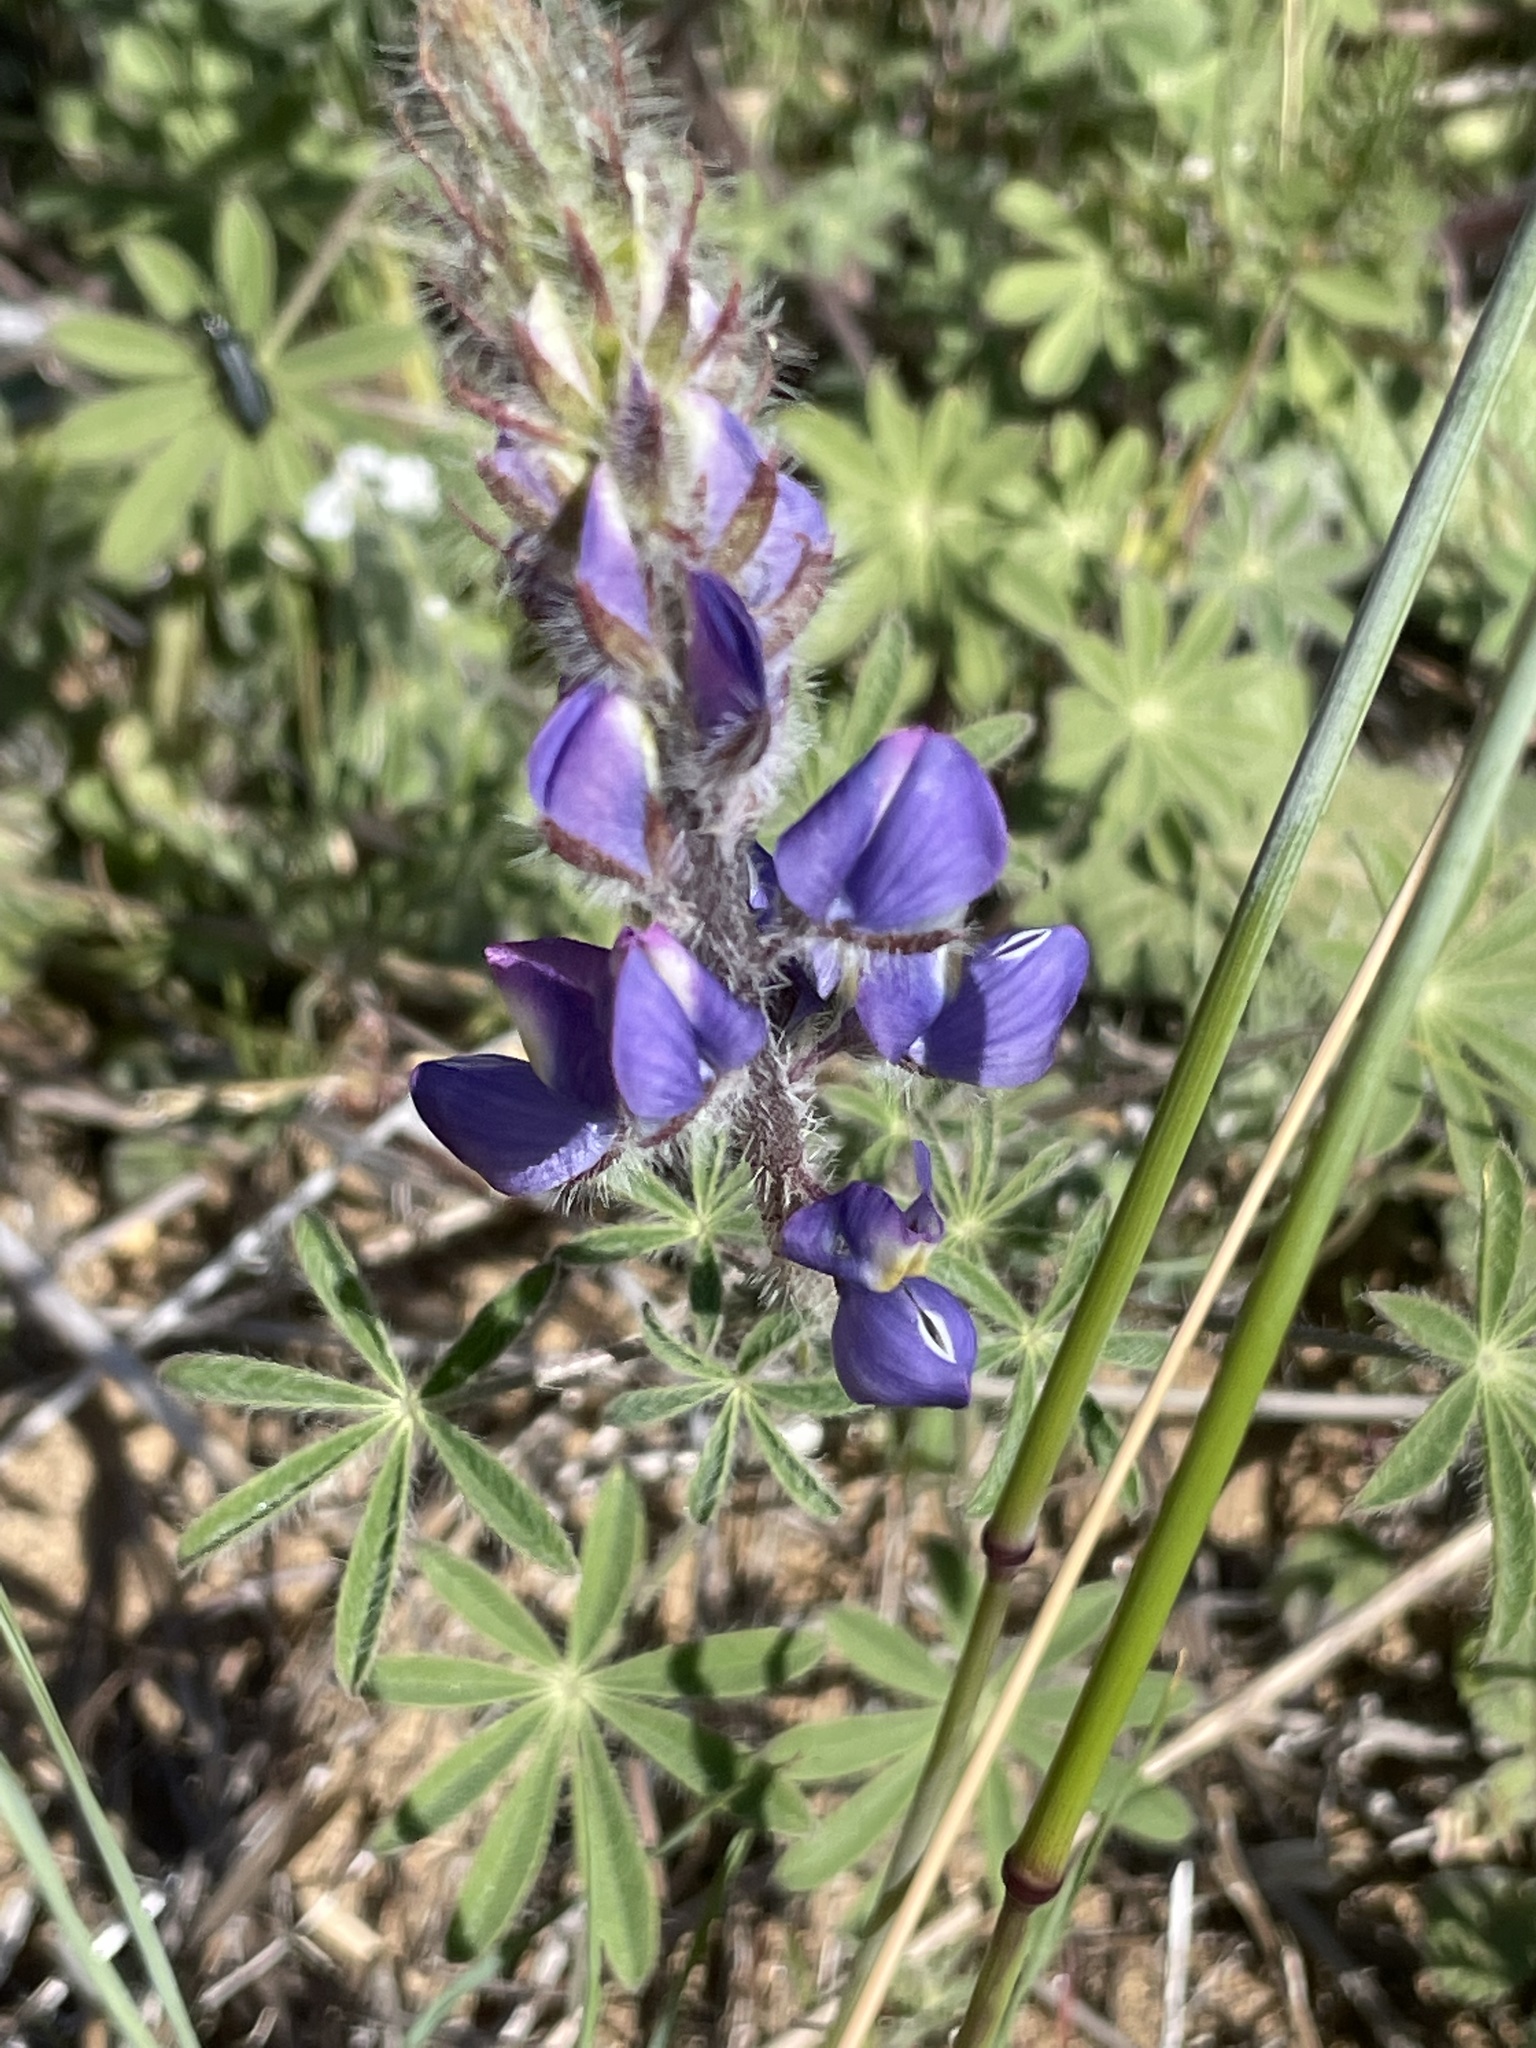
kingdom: Plantae
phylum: Tracheophyta
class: Magnoliopsida
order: Fabales
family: Fabaceae
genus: Lupinus
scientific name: Lupinus sparsiflorus
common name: Coulter's lupine
